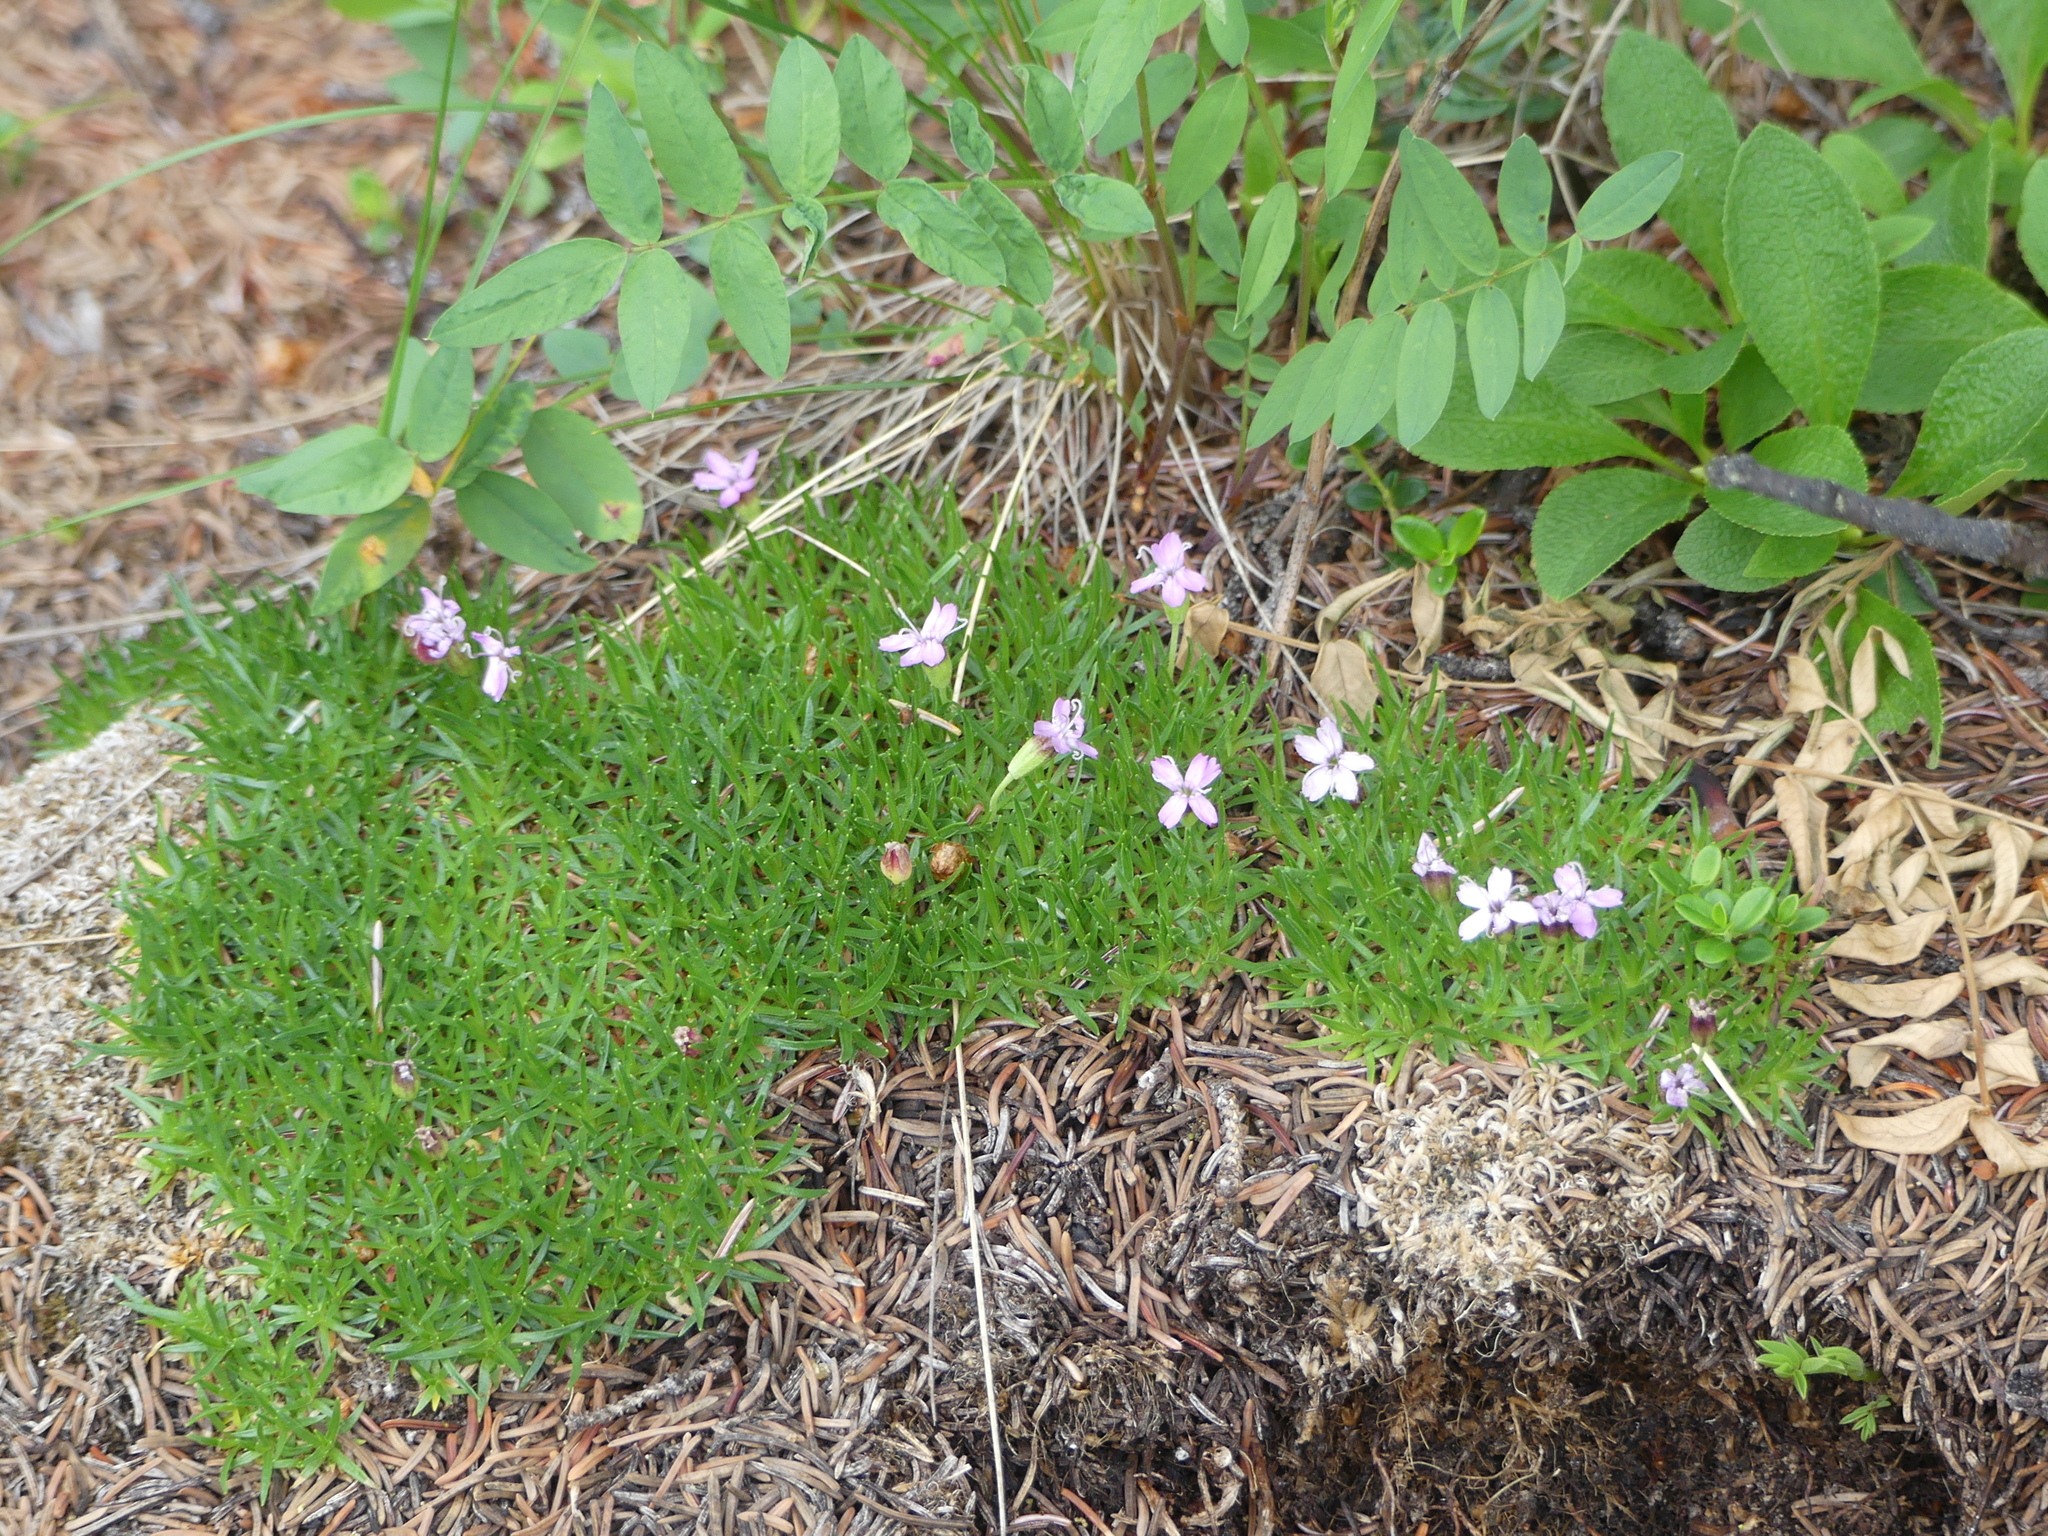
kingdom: Plantae
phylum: Tracheophyta
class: Magnoliopsida
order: Caryophyllales
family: Caryophyllaceae
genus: Silene
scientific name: Silene acaulis
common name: Moss campion
